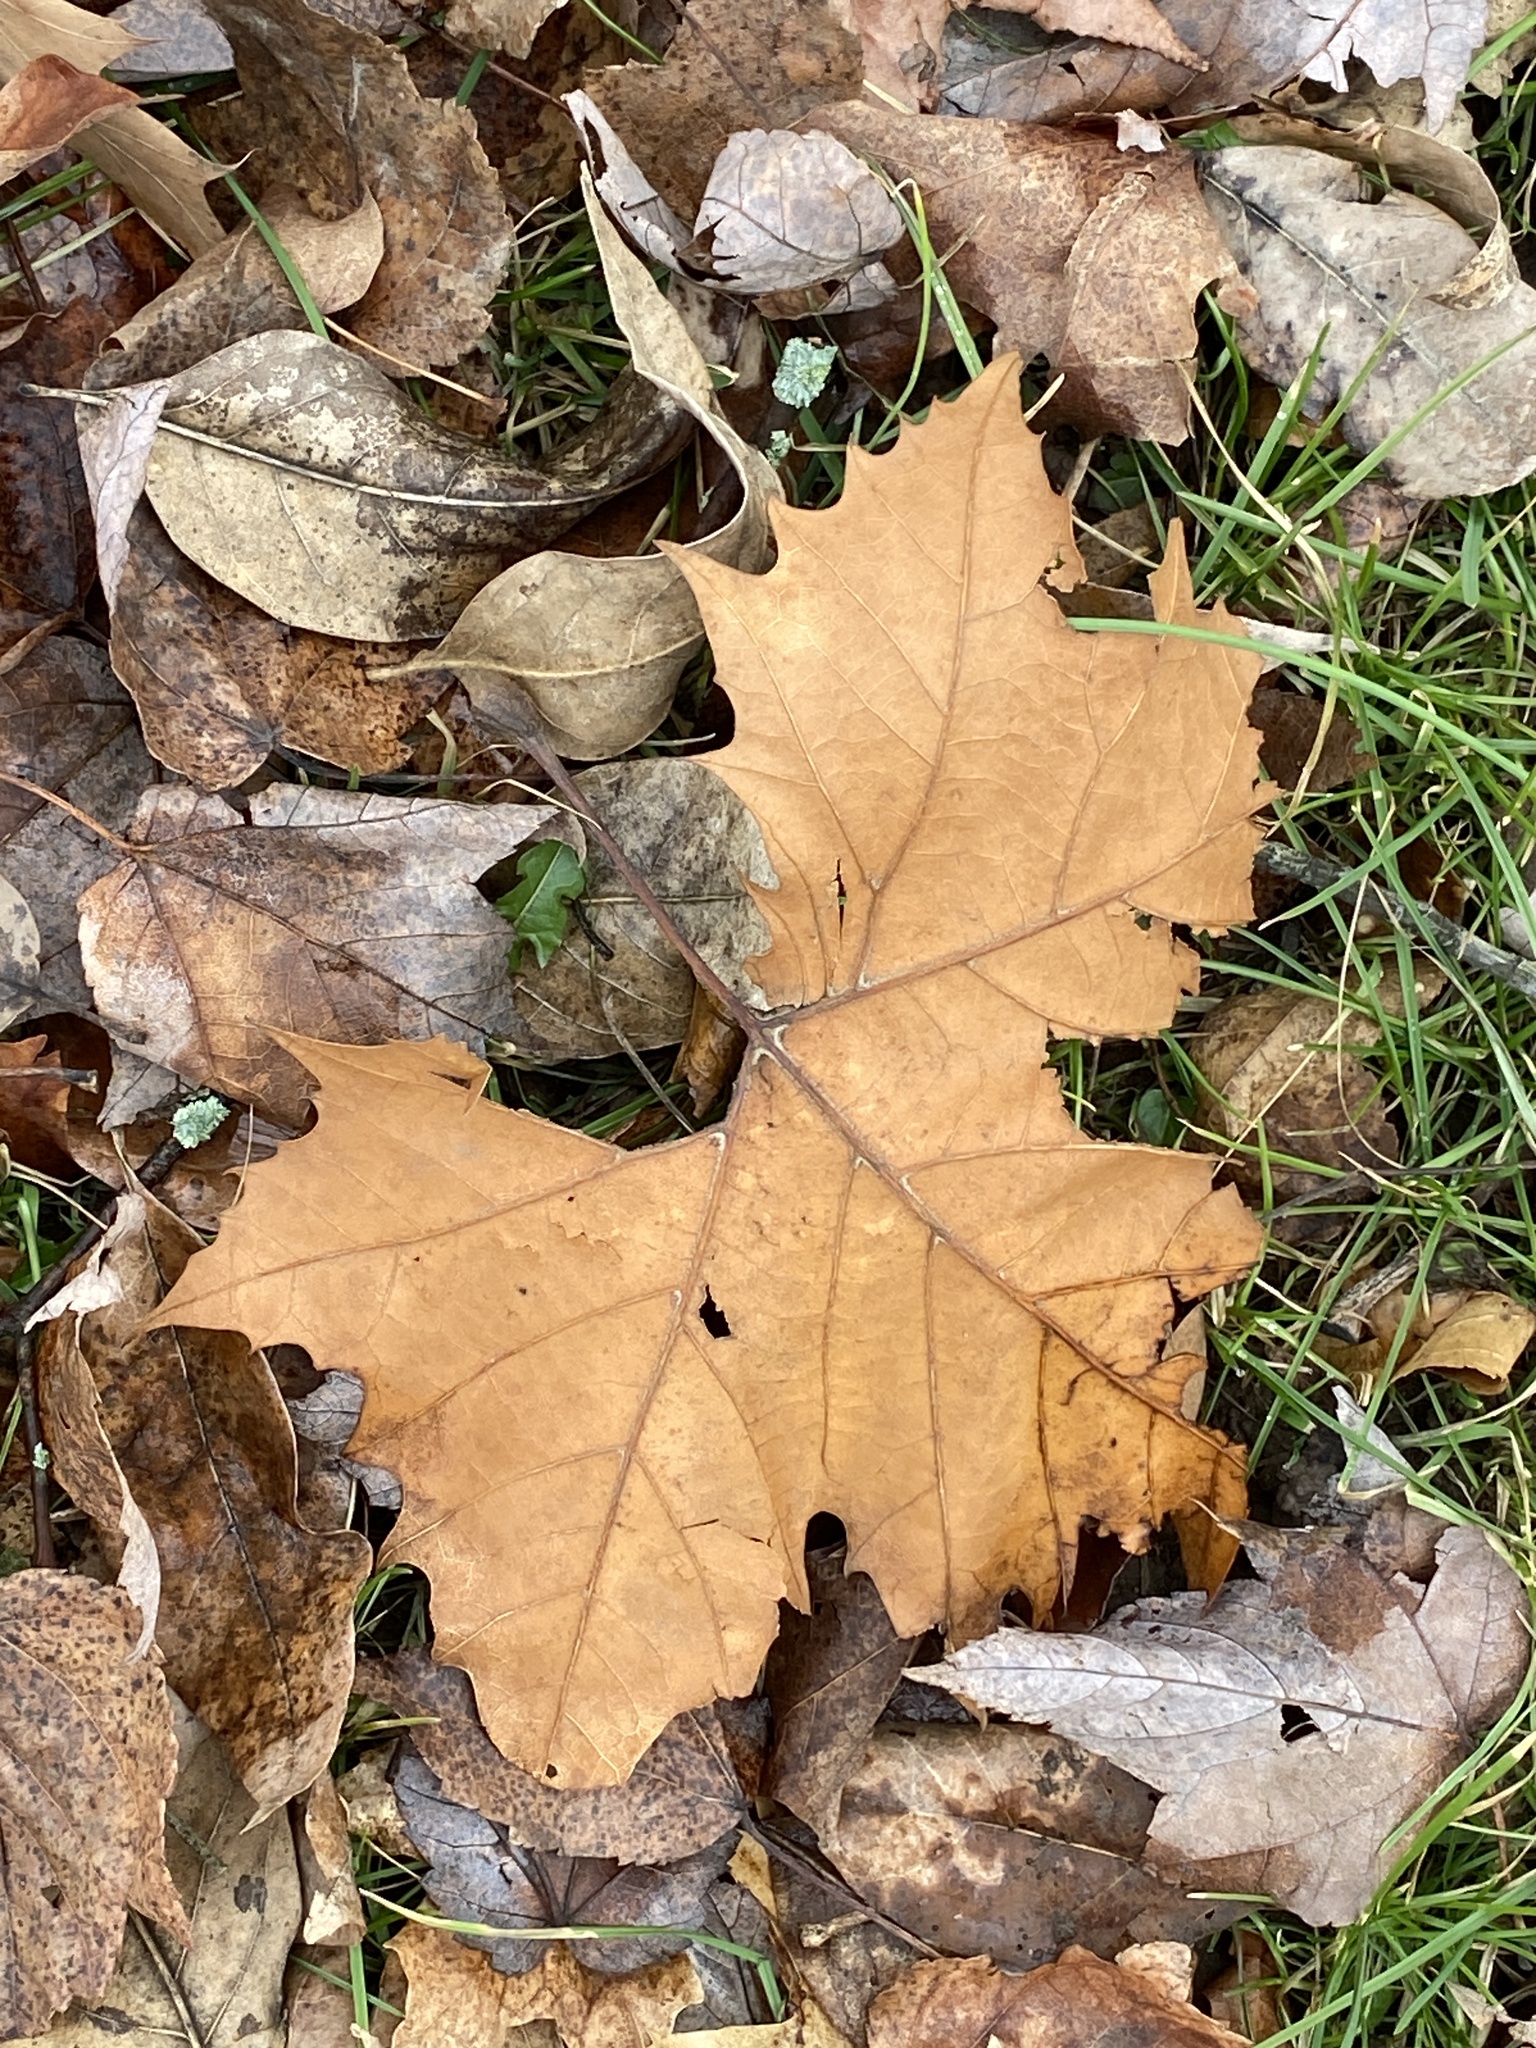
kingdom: Plantae
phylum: Tracheophyta
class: Magnoliopsida
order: Proteales
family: Platanaceae
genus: Platanus
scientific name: Platanus occidentalis
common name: American sycamore
